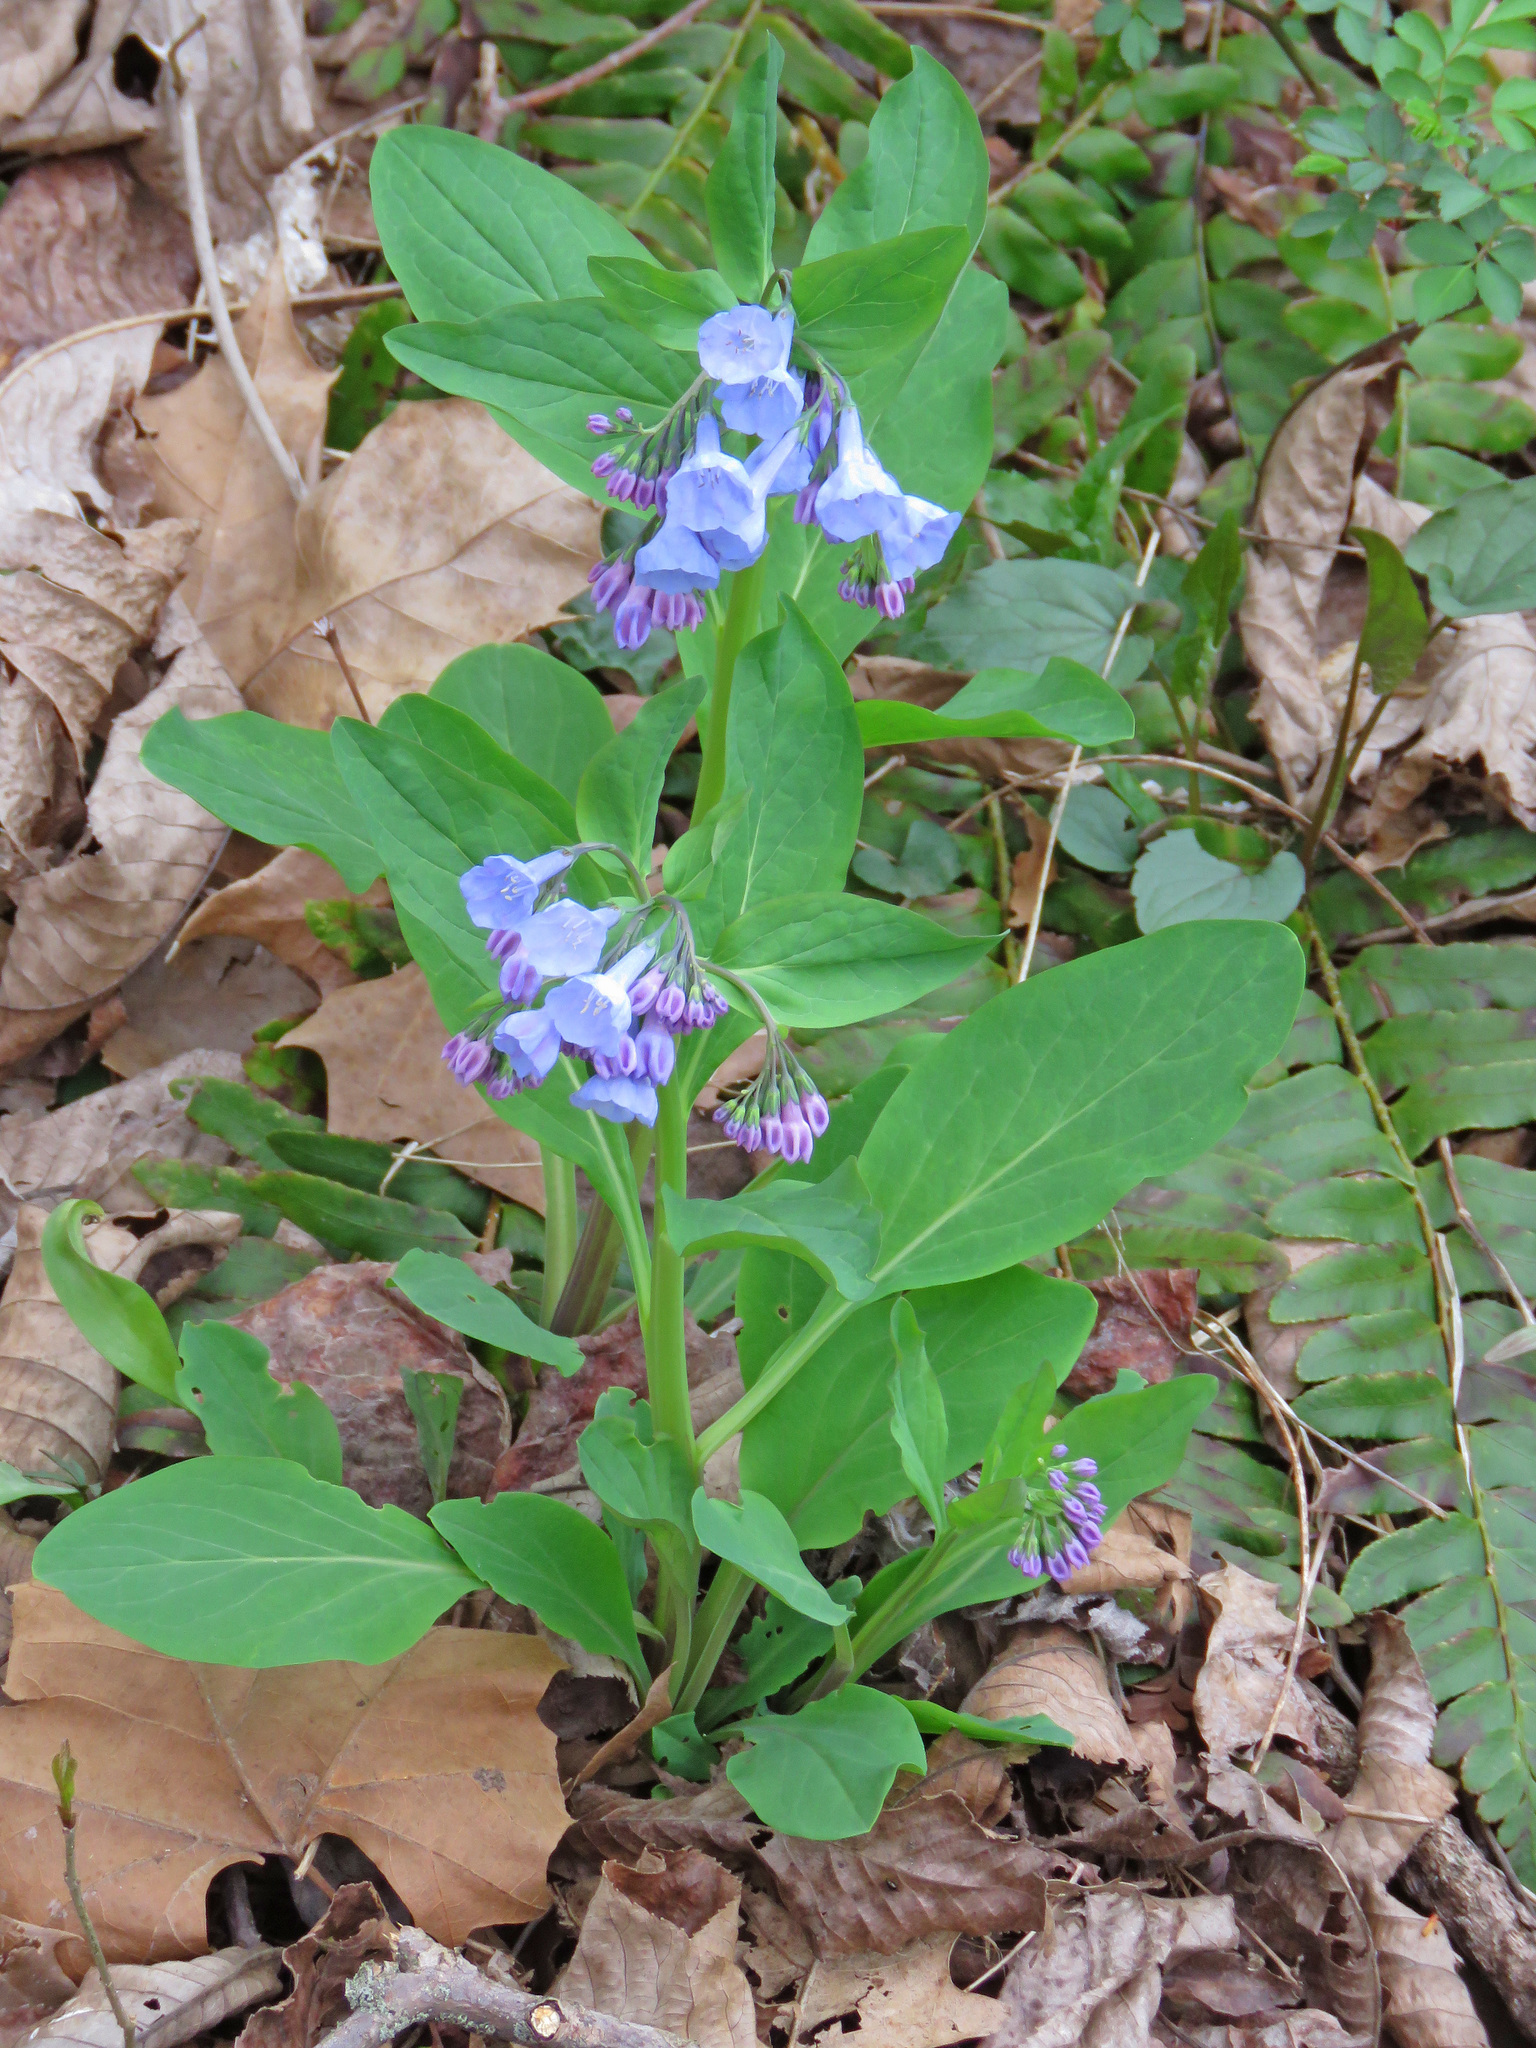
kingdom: Plantae
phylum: Tracheophyta
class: Magnoliopsida
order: Boraginales
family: Boraginaceae
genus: Mertensia
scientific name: Mertensia virginica
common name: Virginia bluebells
